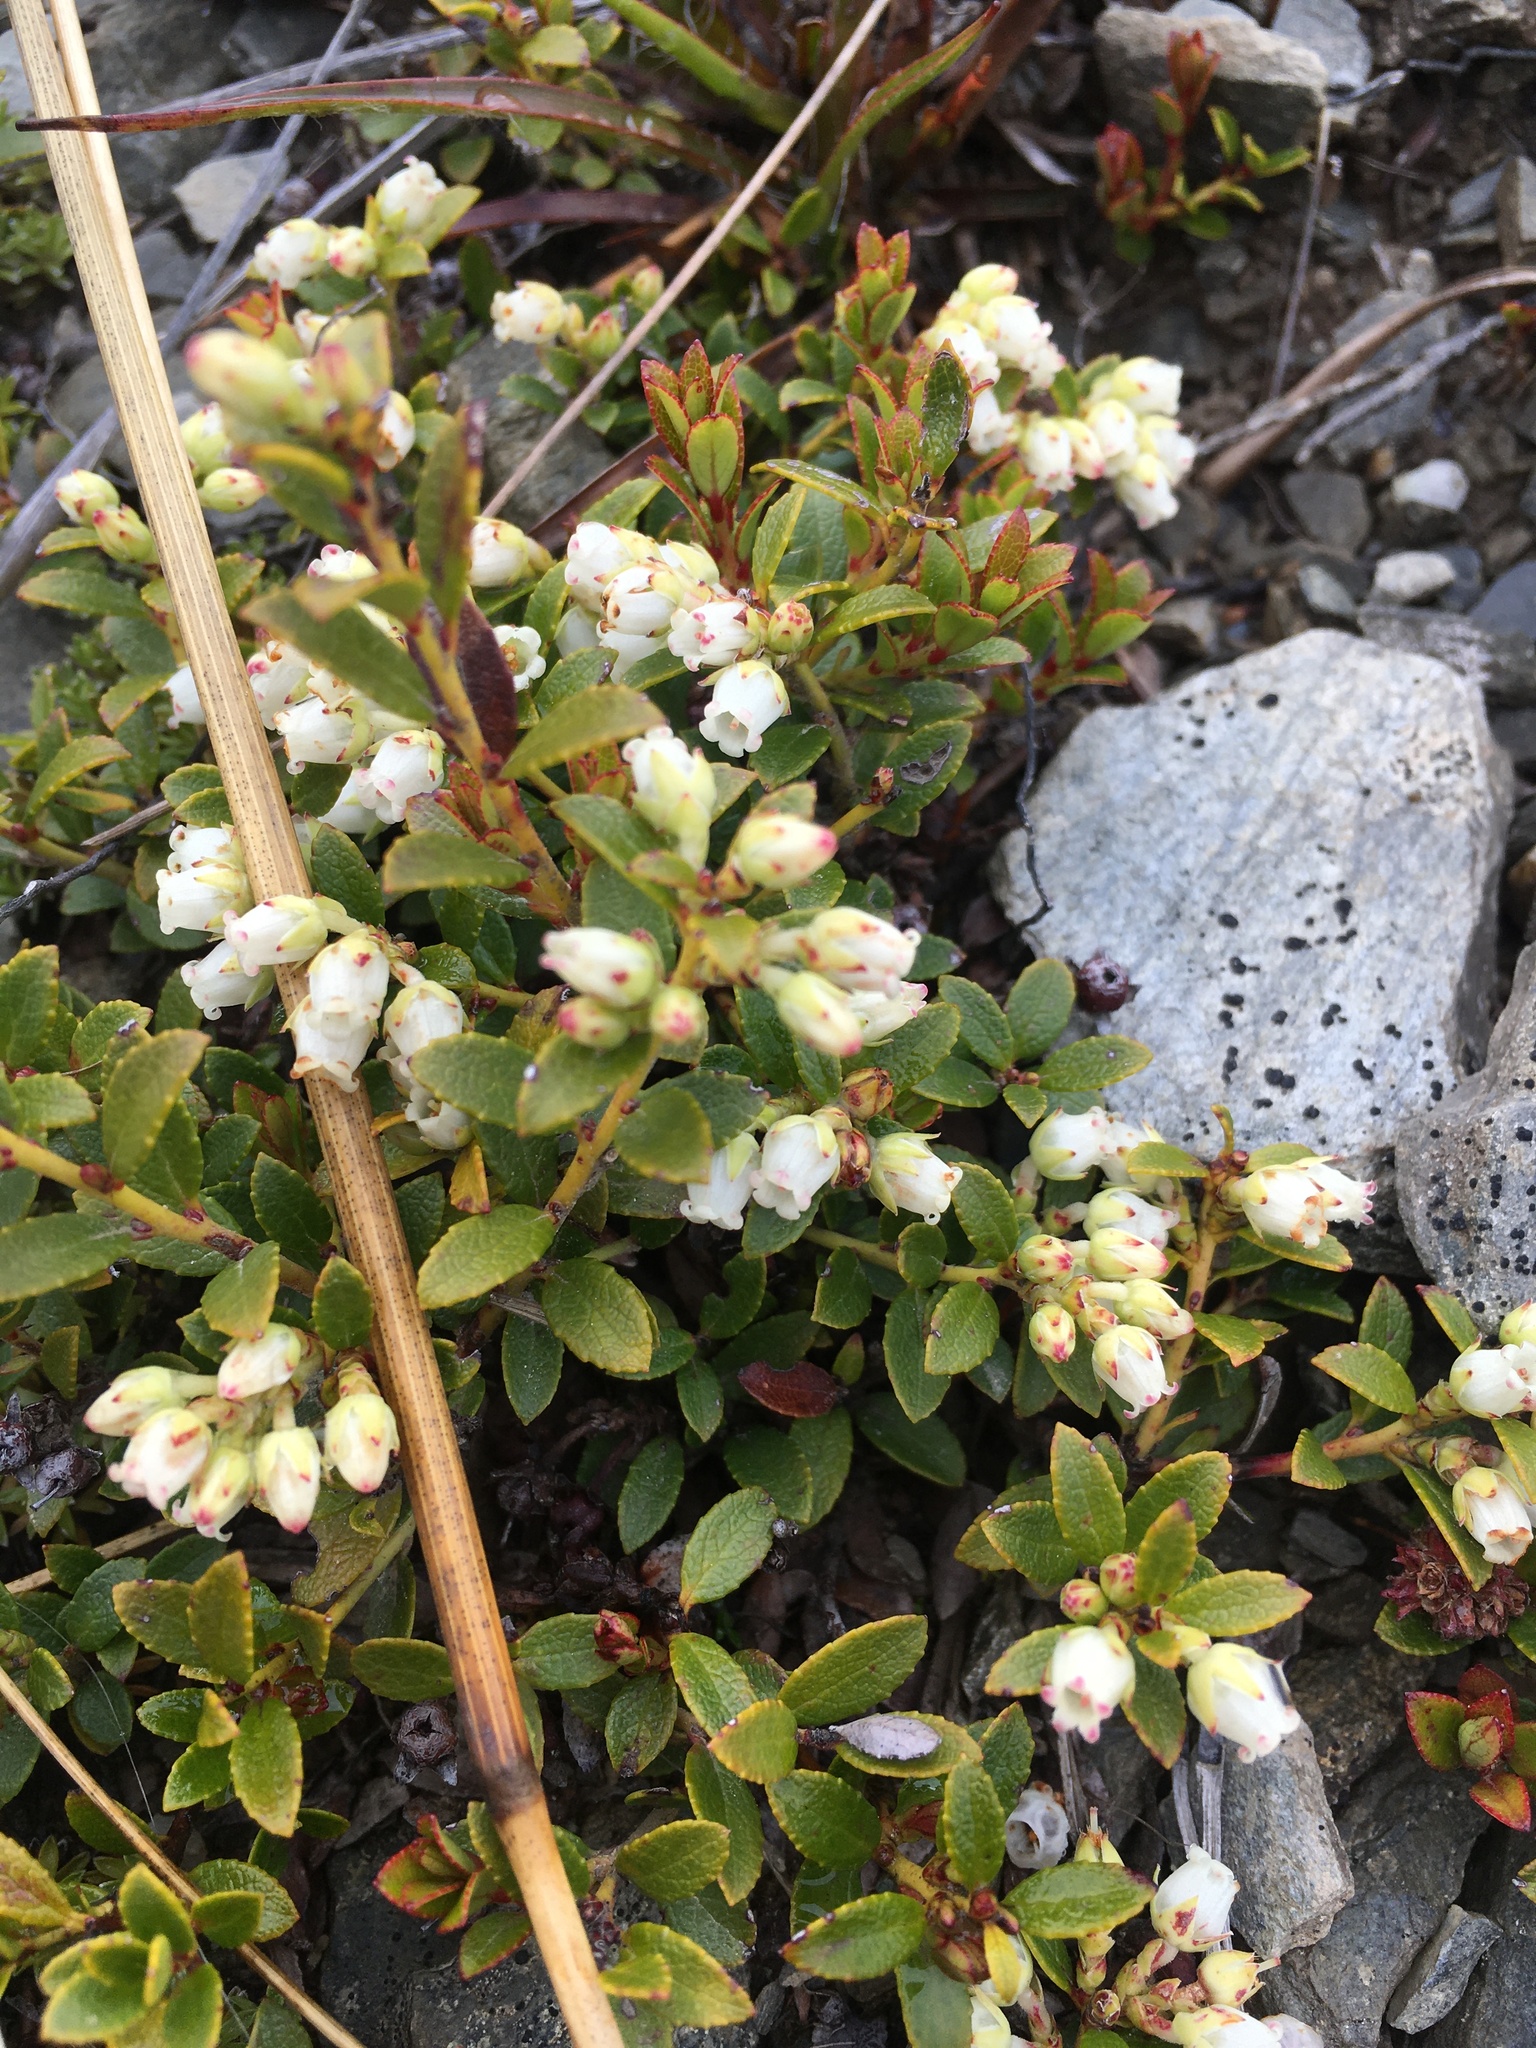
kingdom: Plantae
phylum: Tracheophyta
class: Magnoliopsida
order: Ericales
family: Ericaceae
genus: Gaultheria
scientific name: Gaultheria crassa
